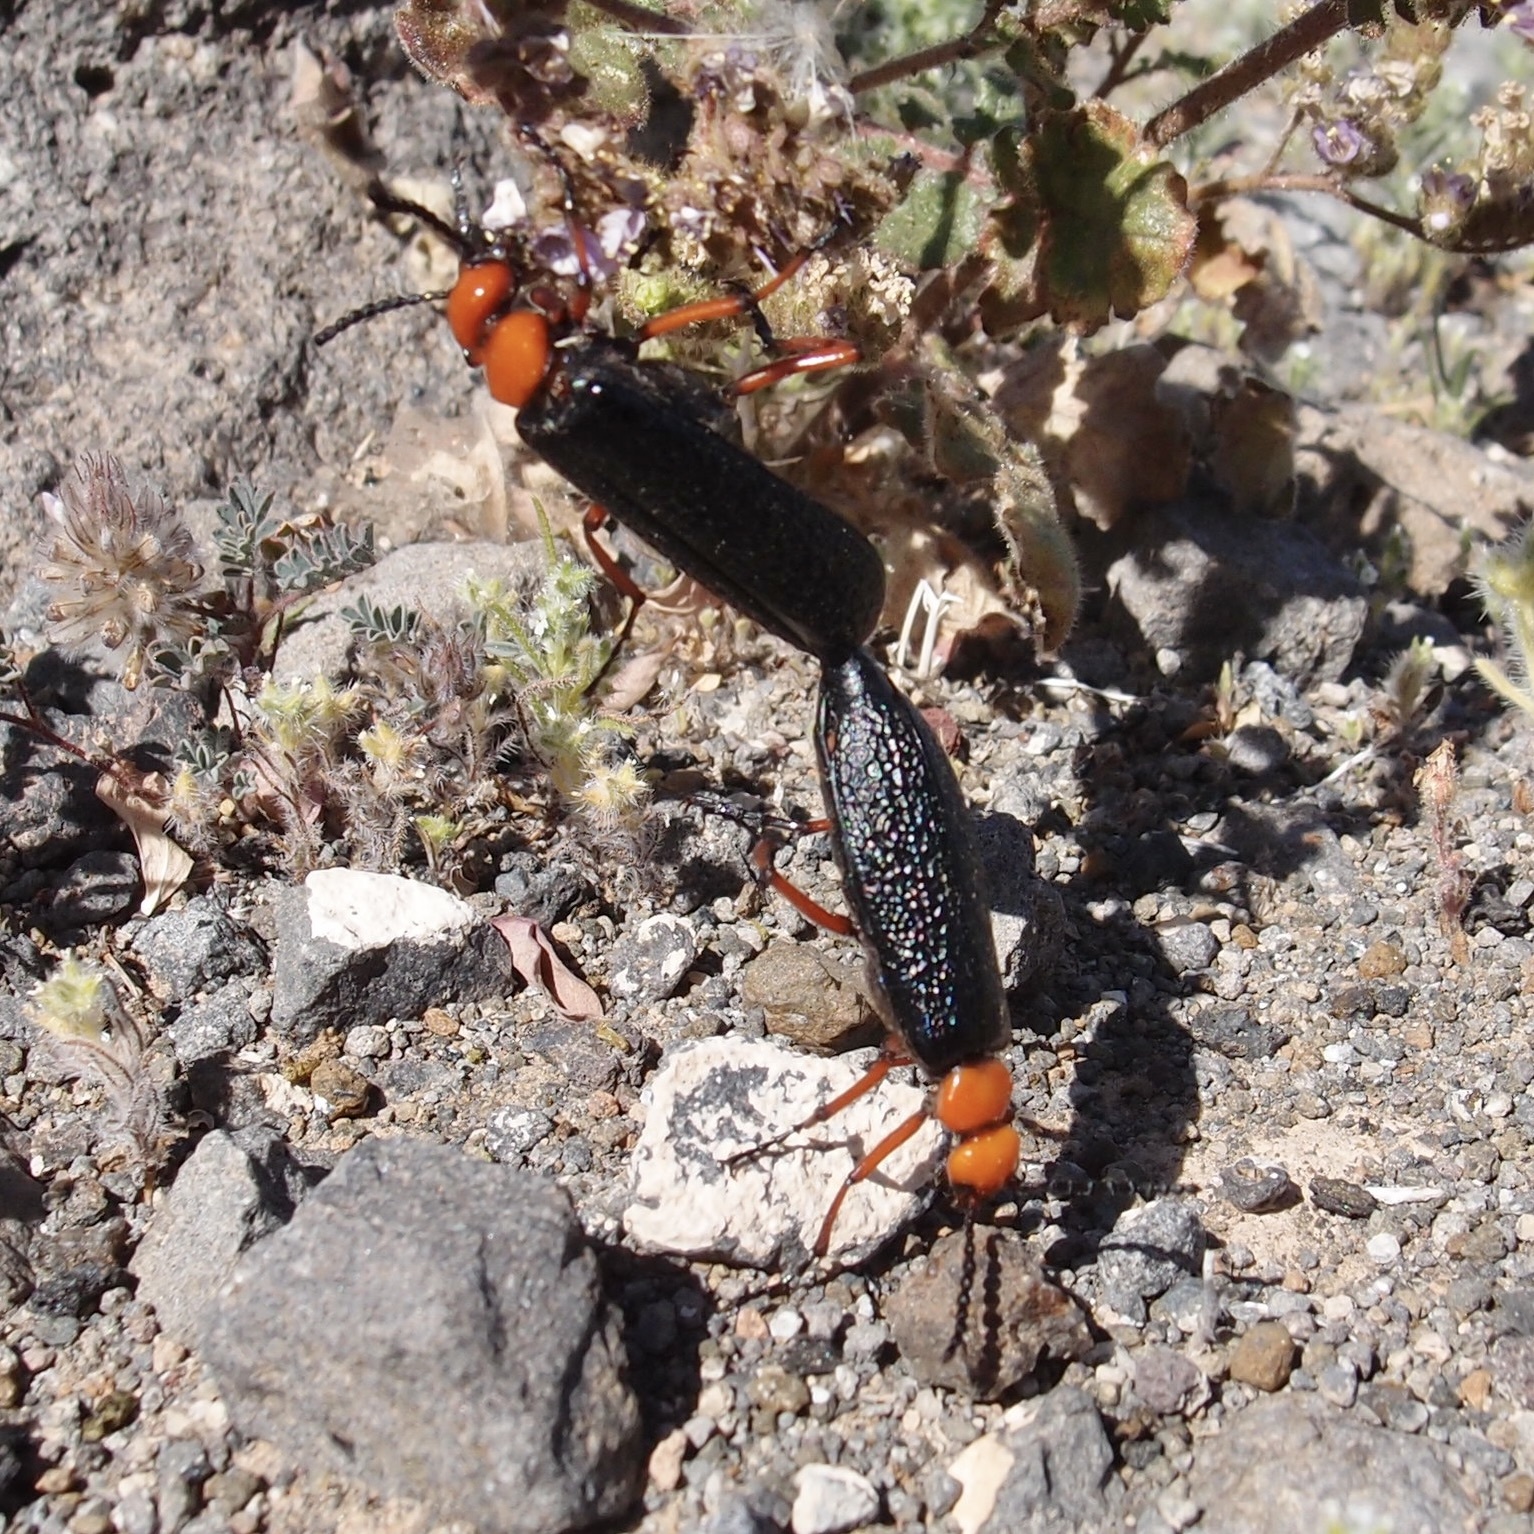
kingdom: Animalia
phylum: Arthropoda
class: Insecta
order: Coleoptera
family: Meloidae
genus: Lytta
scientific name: Lytta magister
